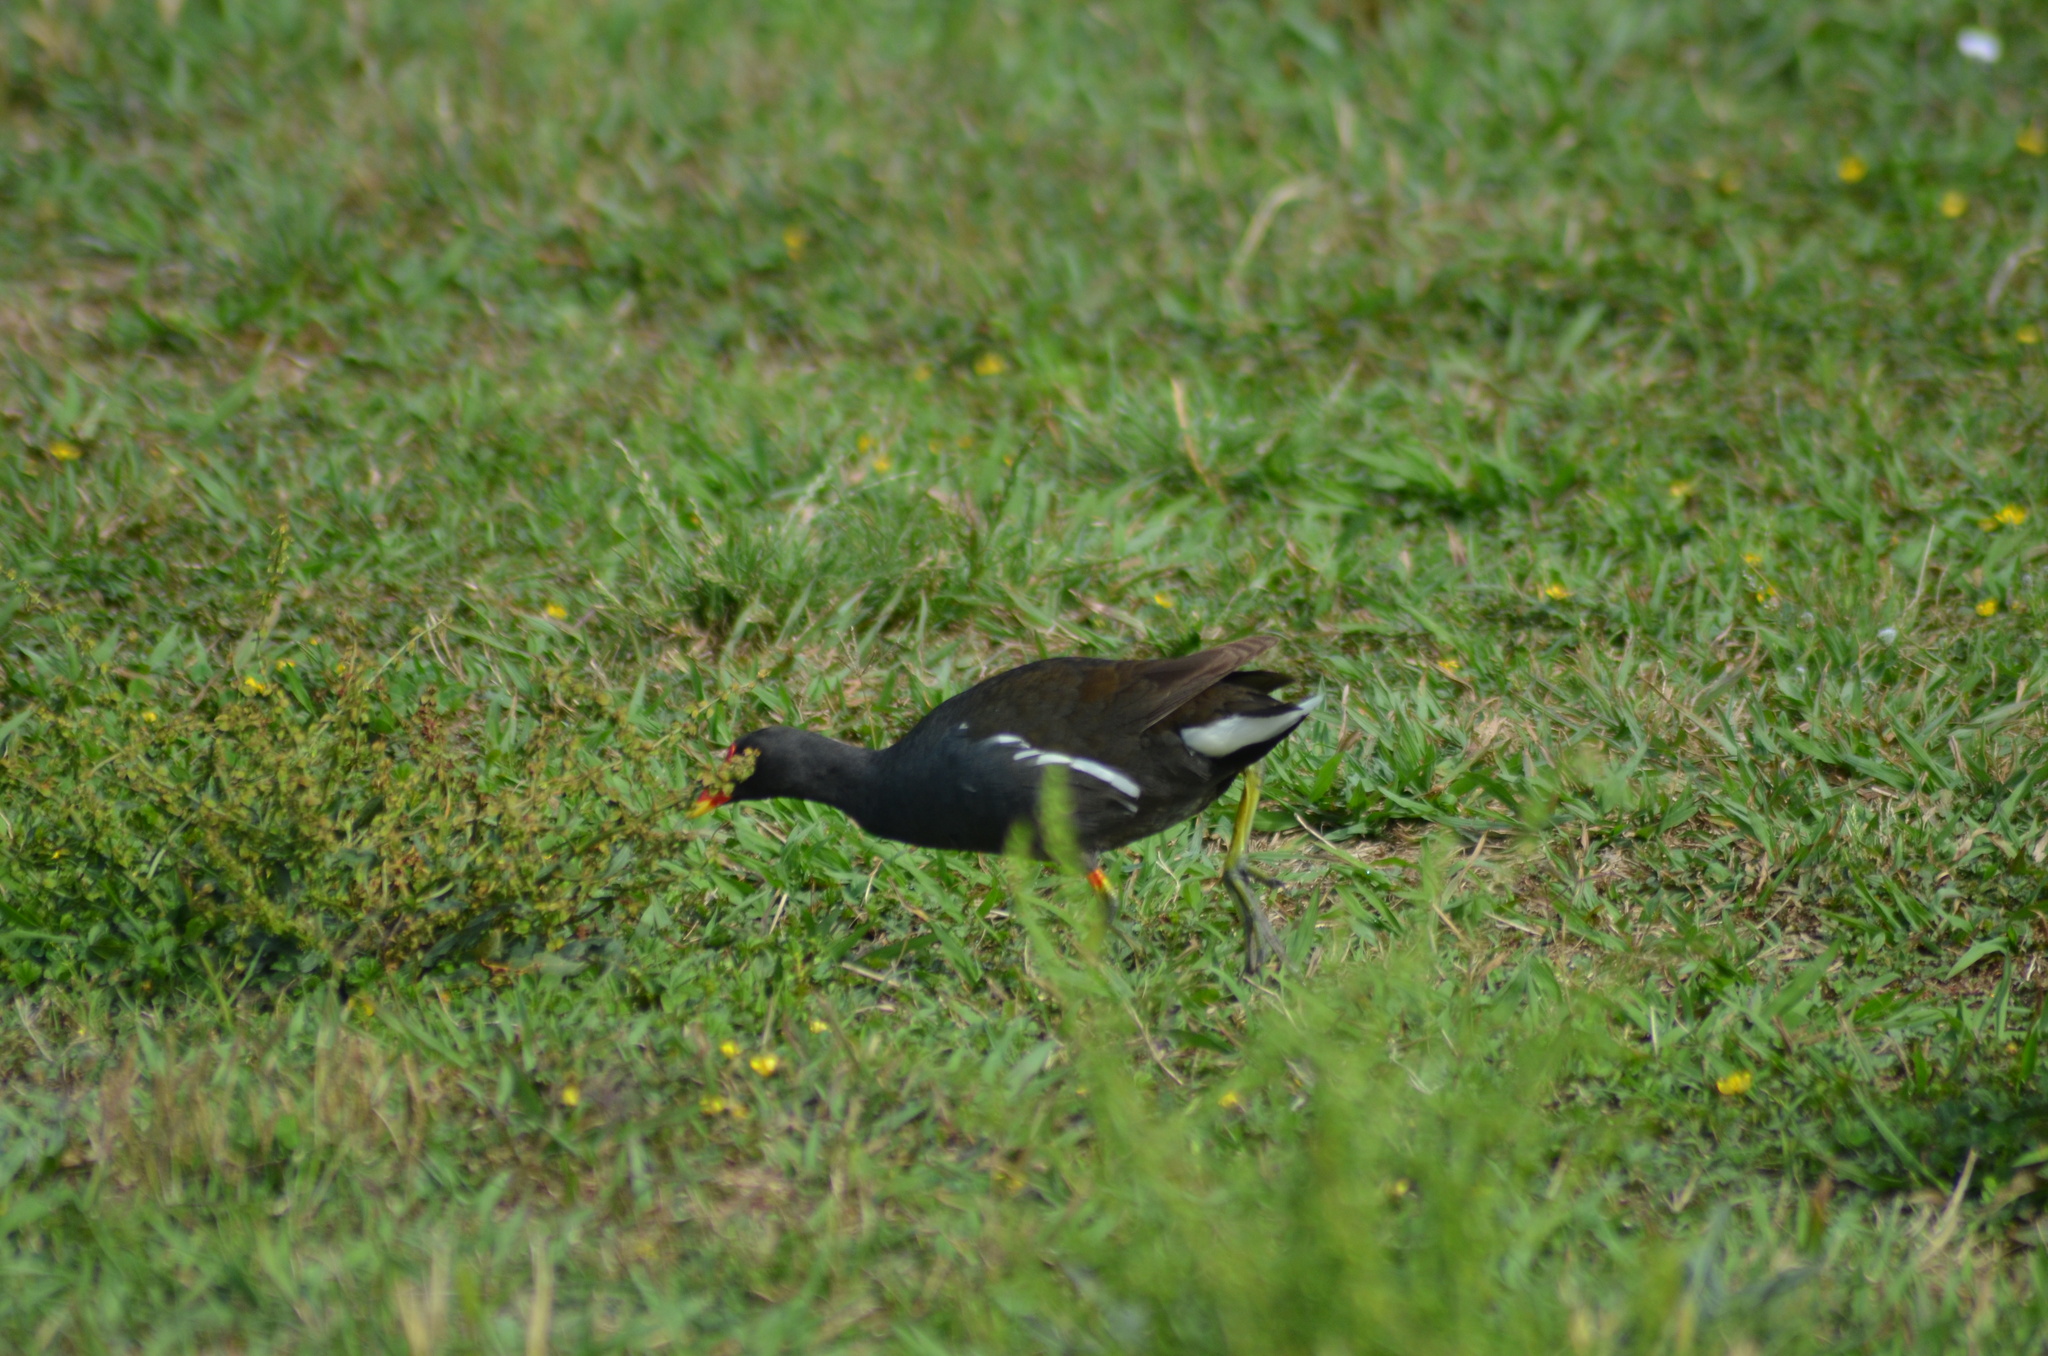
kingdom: Animalia
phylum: Chordata
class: Aves
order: Gruiformes
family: Rallidae
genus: Gallinula
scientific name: Gallinula chloropus
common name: Common moorhen
